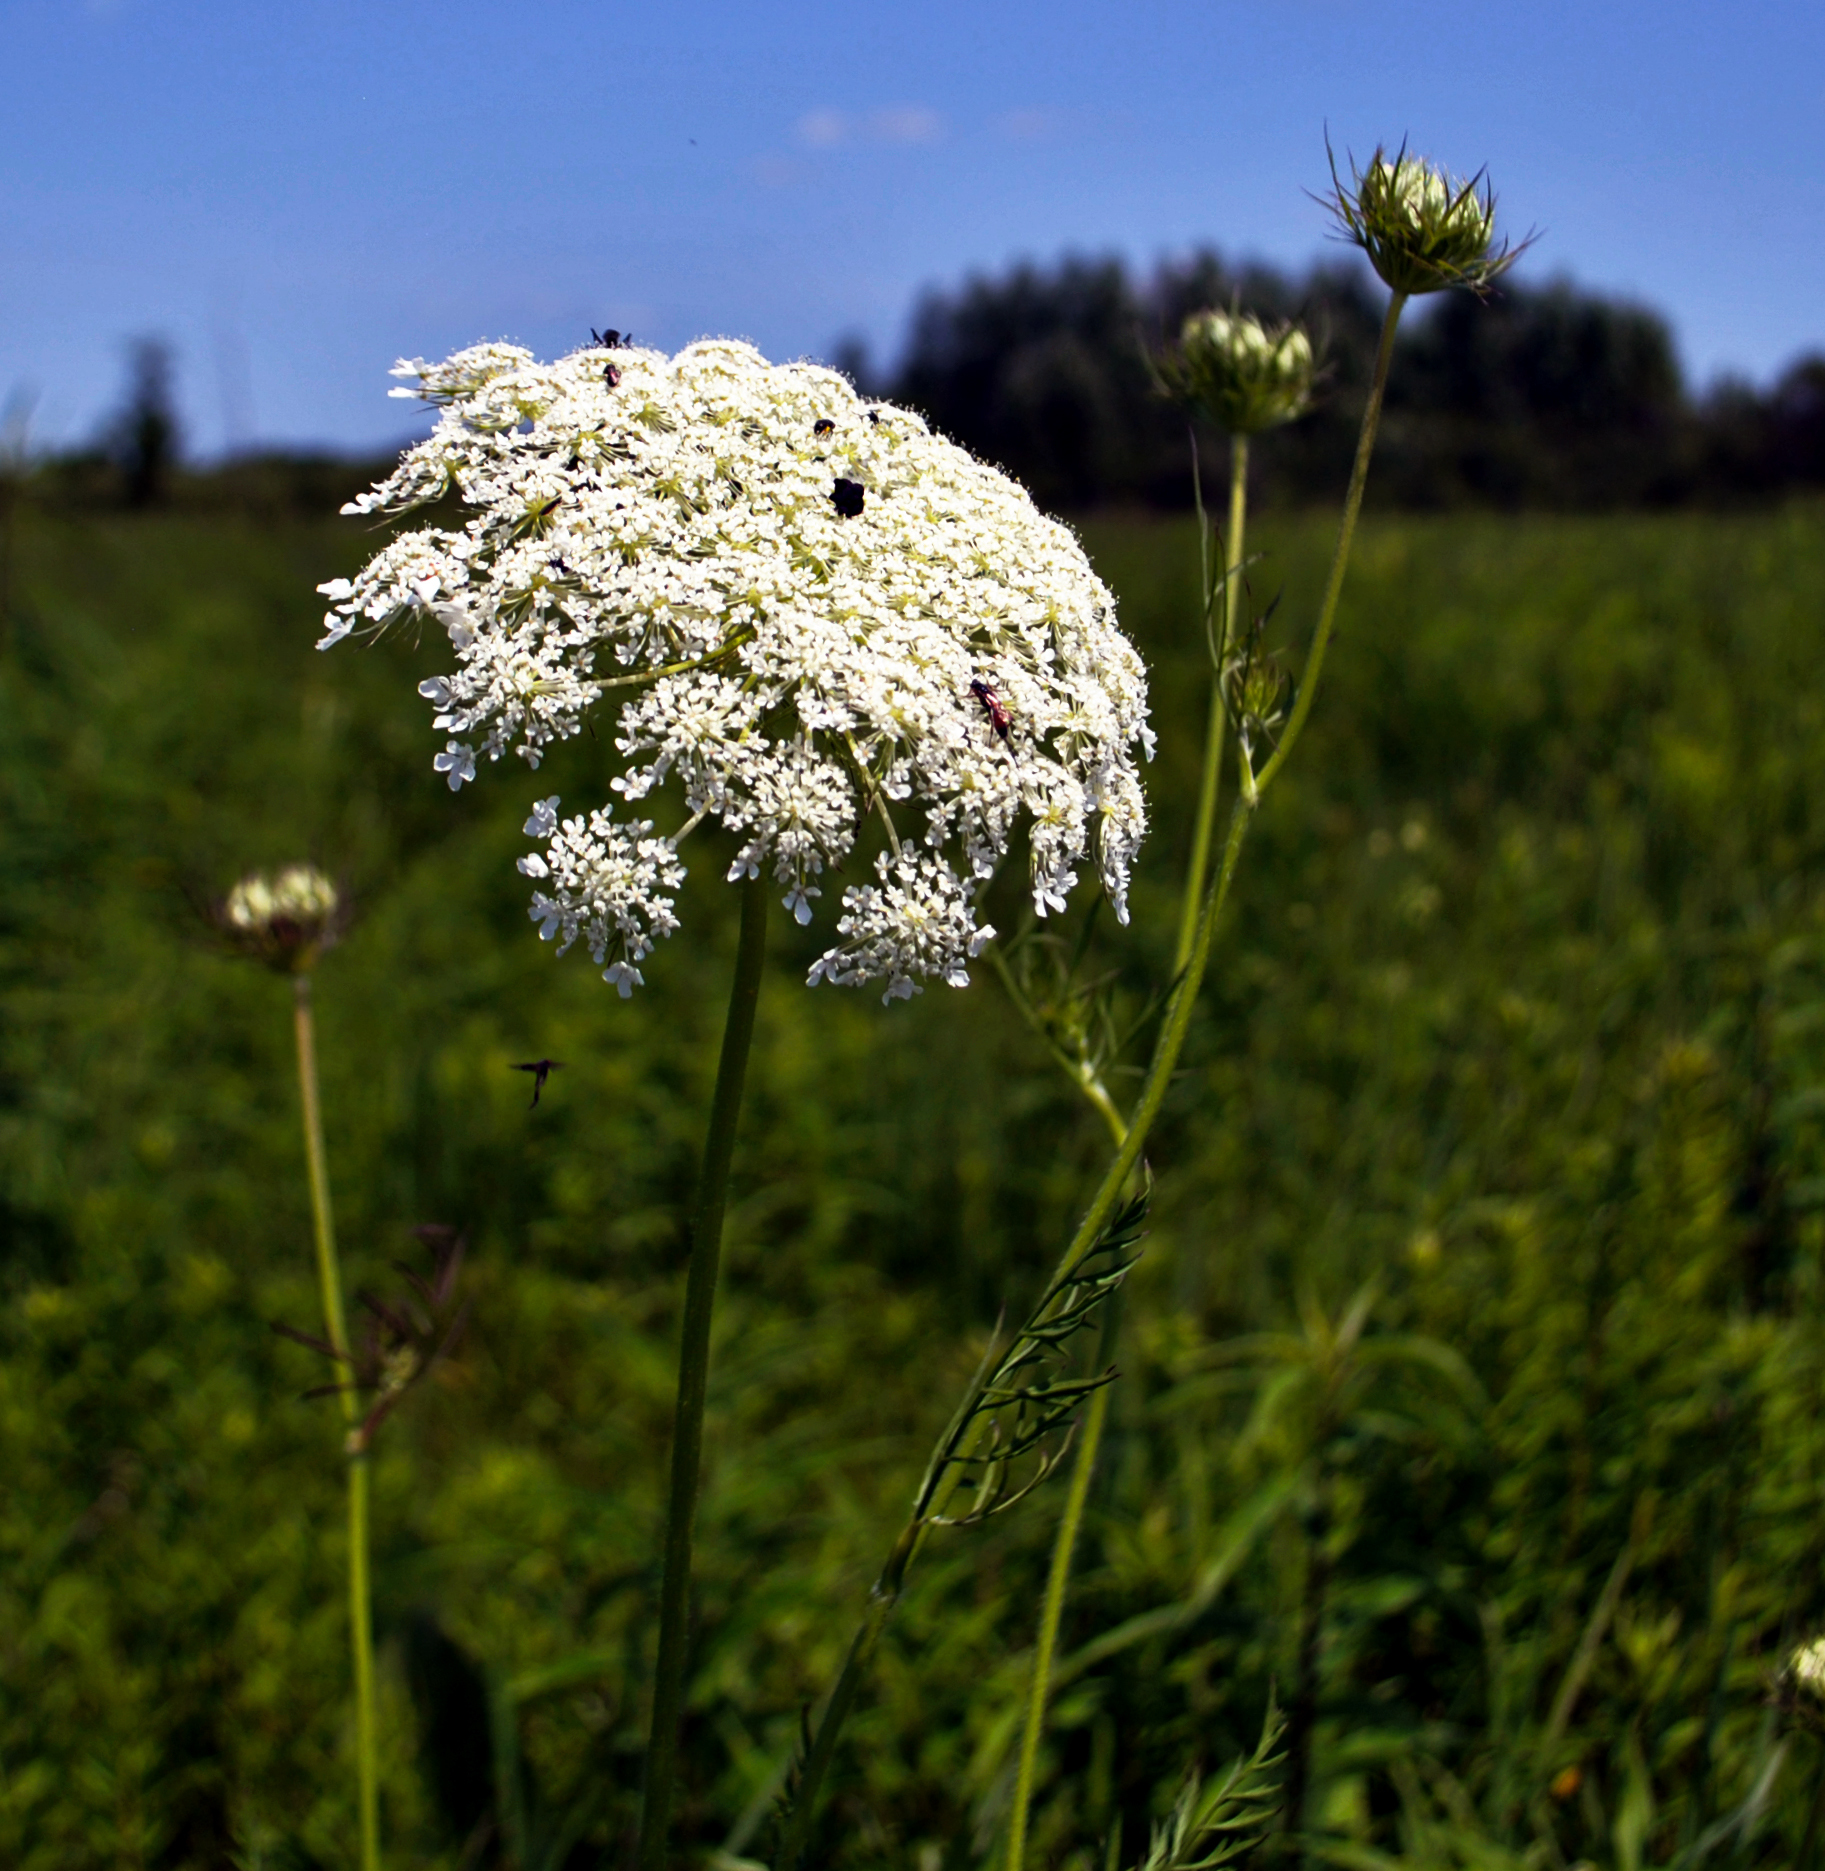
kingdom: Plantae
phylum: Tracheophyta
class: Magnoliopsida
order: Apiales
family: Apiaceae
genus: Daucus
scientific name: Daucus carota
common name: Wild carrot
